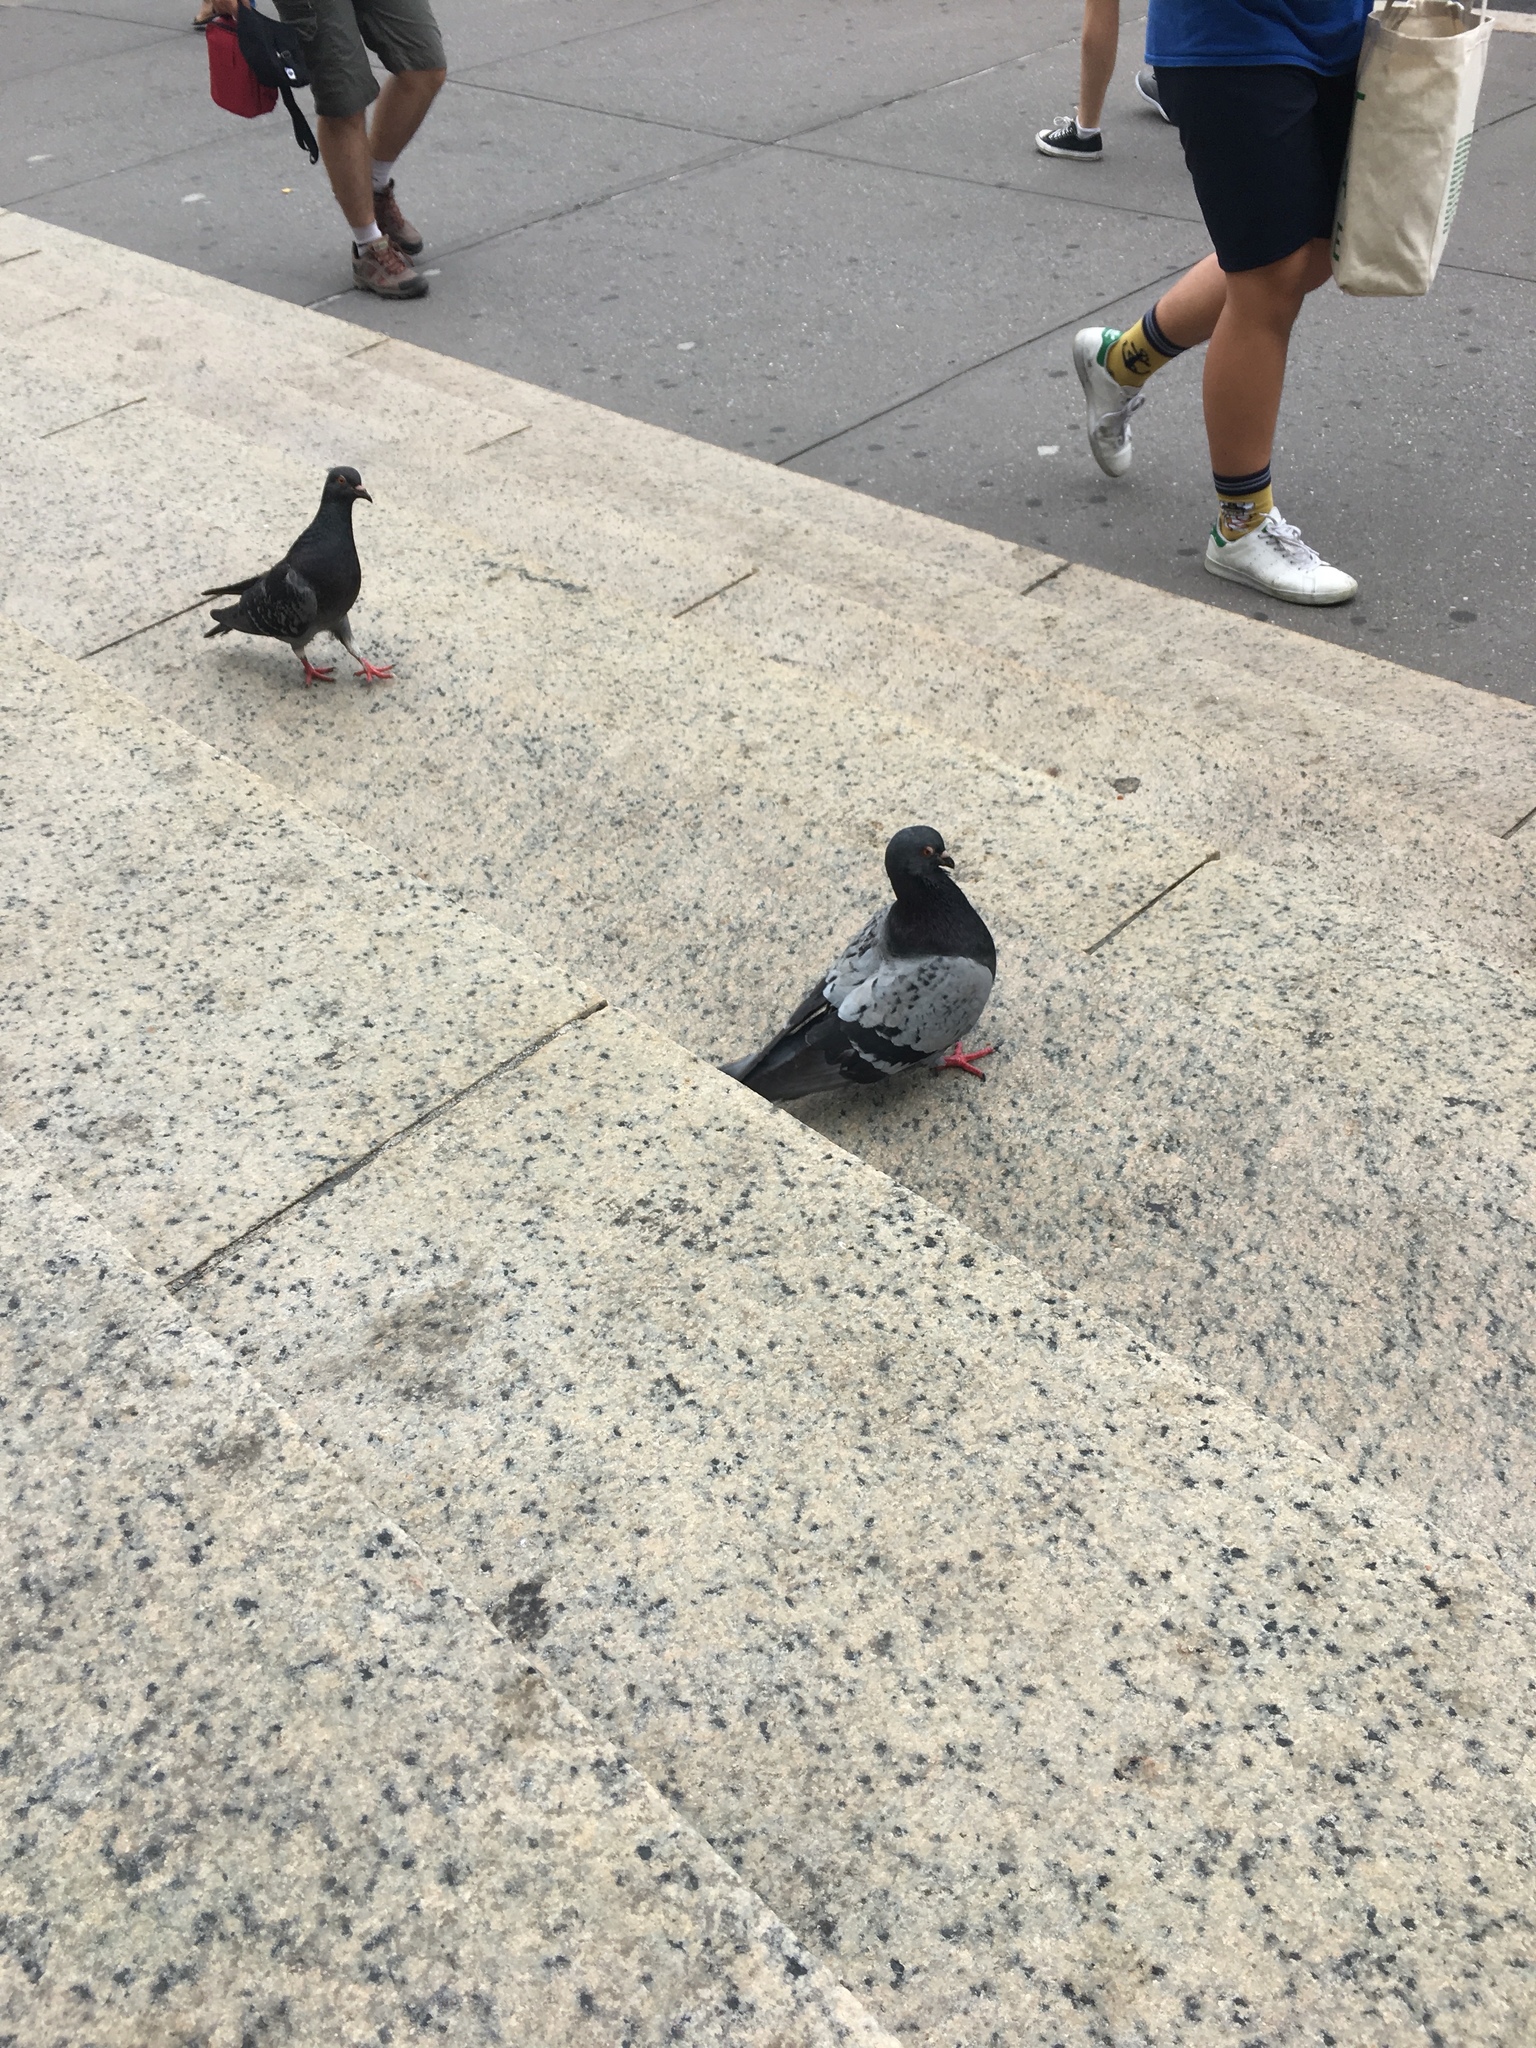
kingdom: Animalia
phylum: Chordata
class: Aves
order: Columbiformes
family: Columbidae
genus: Columba
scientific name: Columba livia
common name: Rock pigeon
